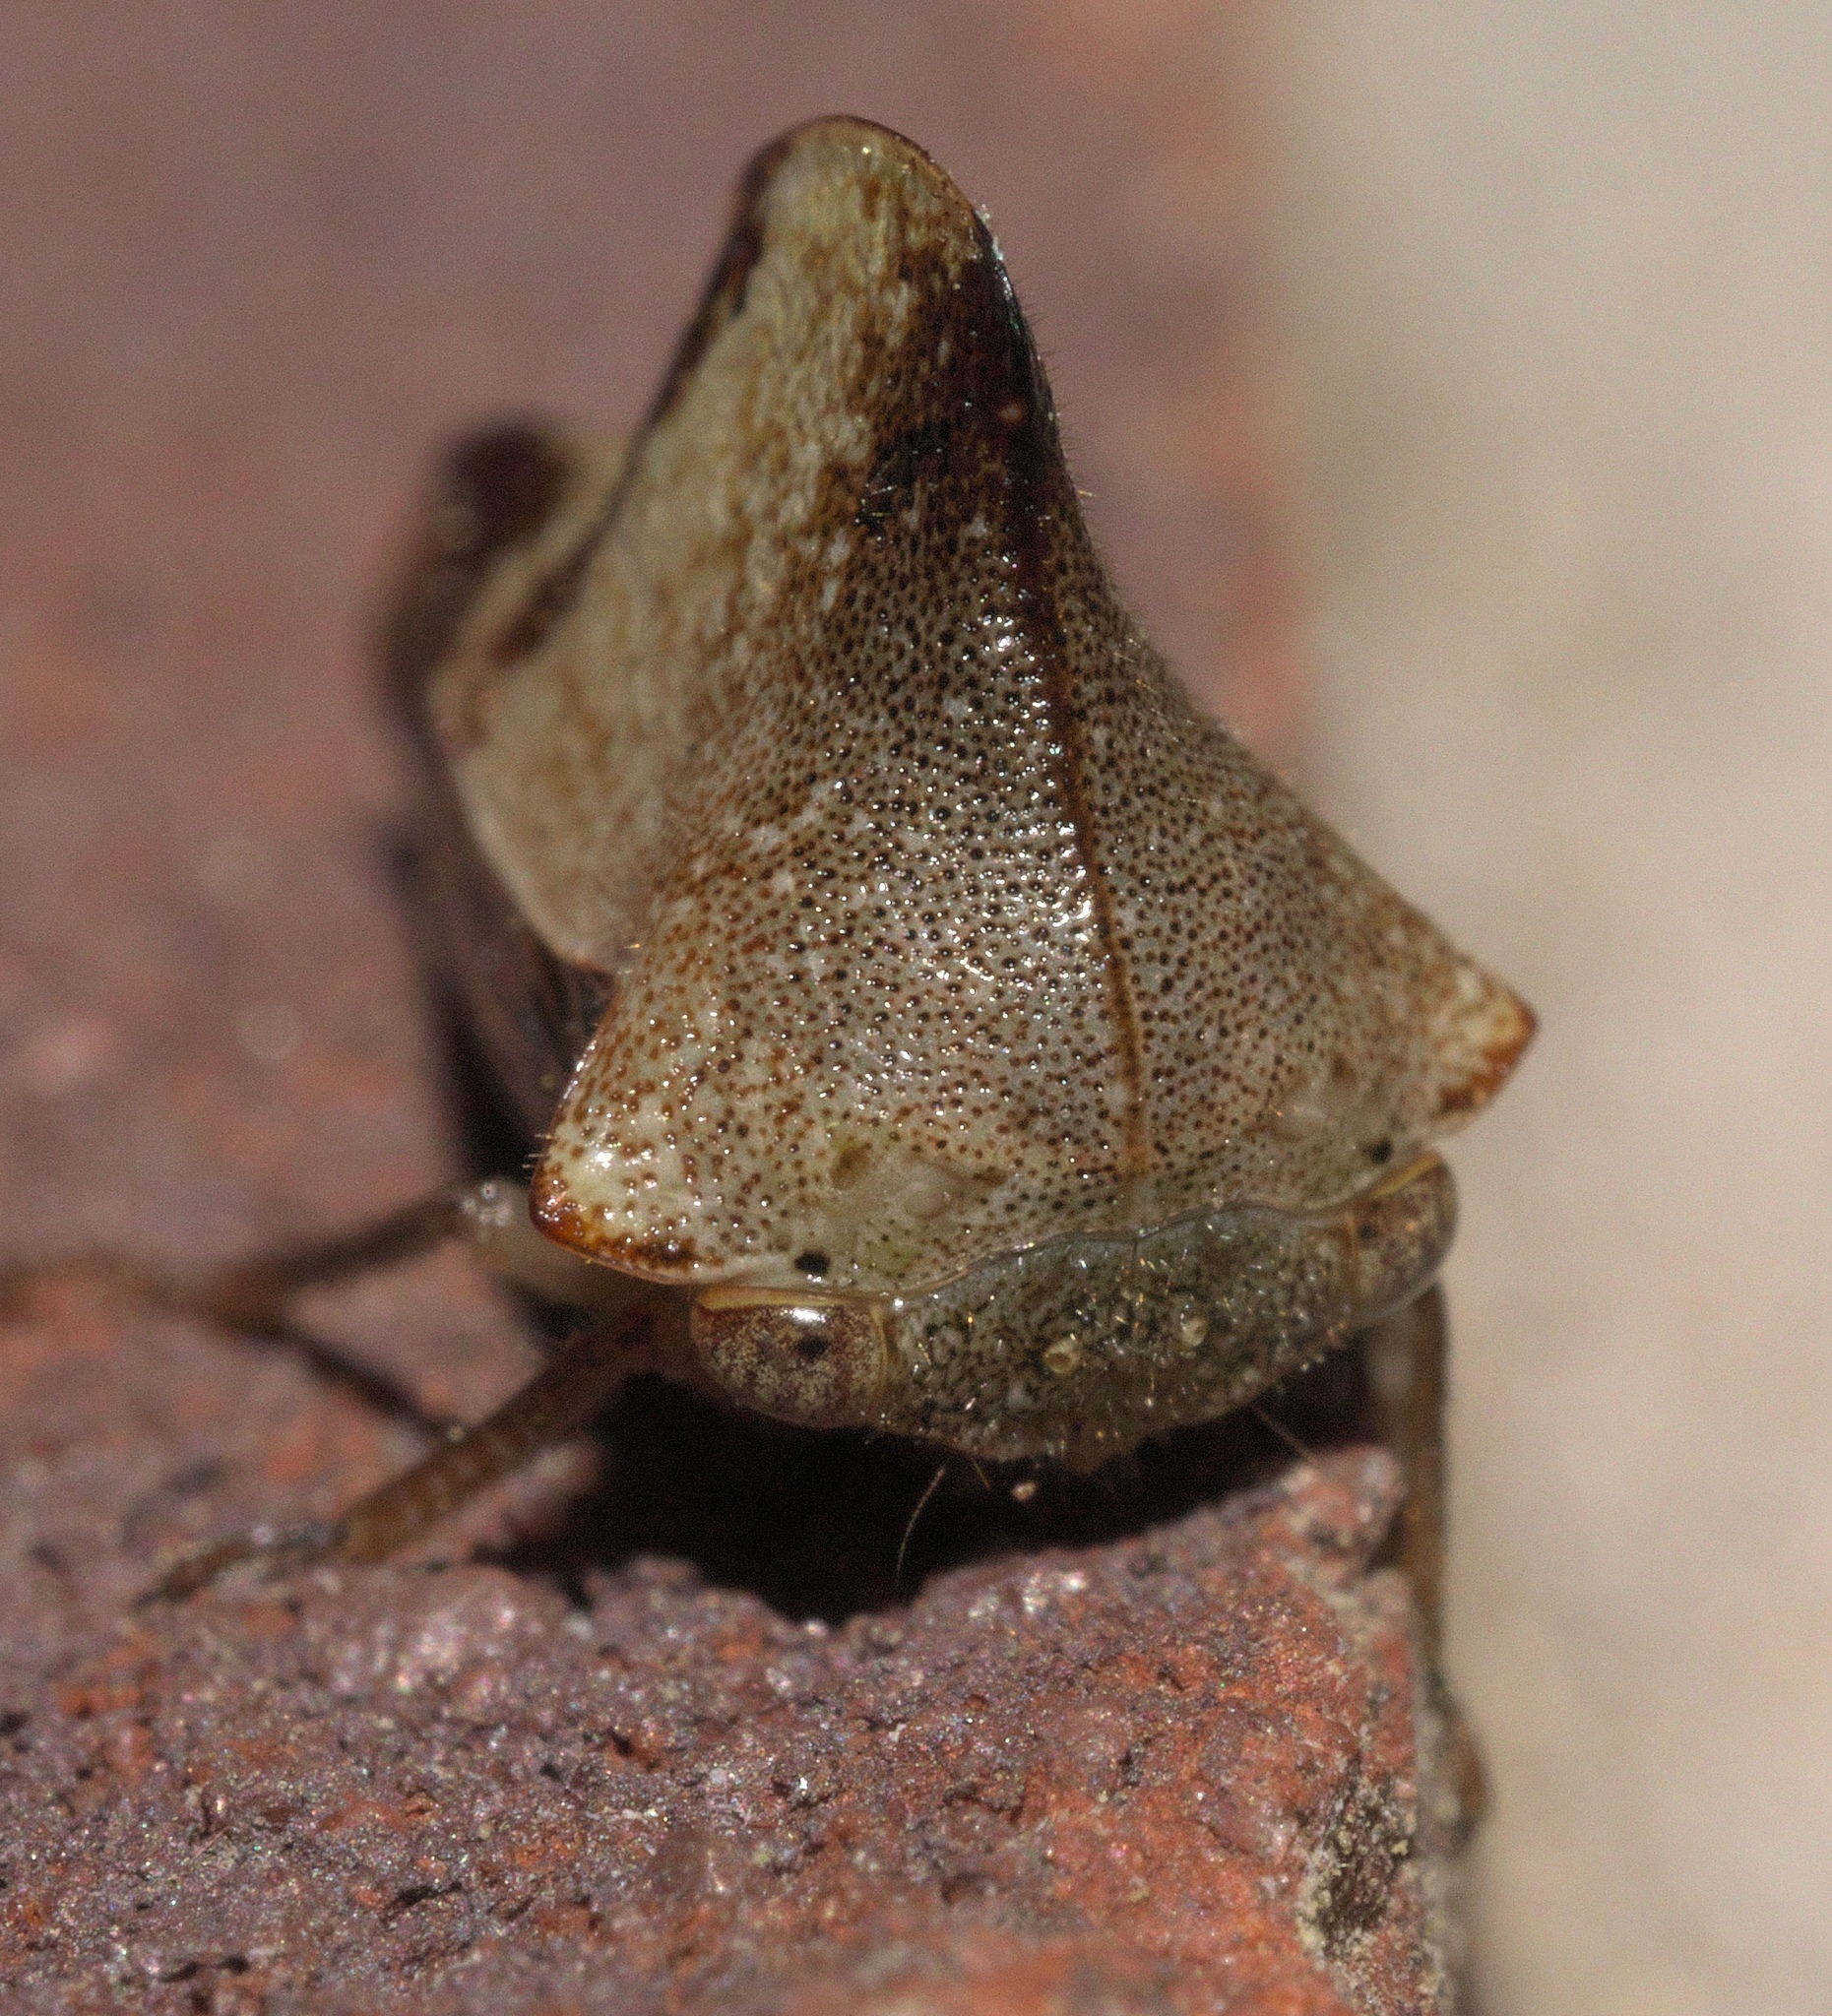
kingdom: Animalia
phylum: Arthropoda
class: Insecta
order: Hemiptera
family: Membracidae
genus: Helonica
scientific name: Helonica excelsa
